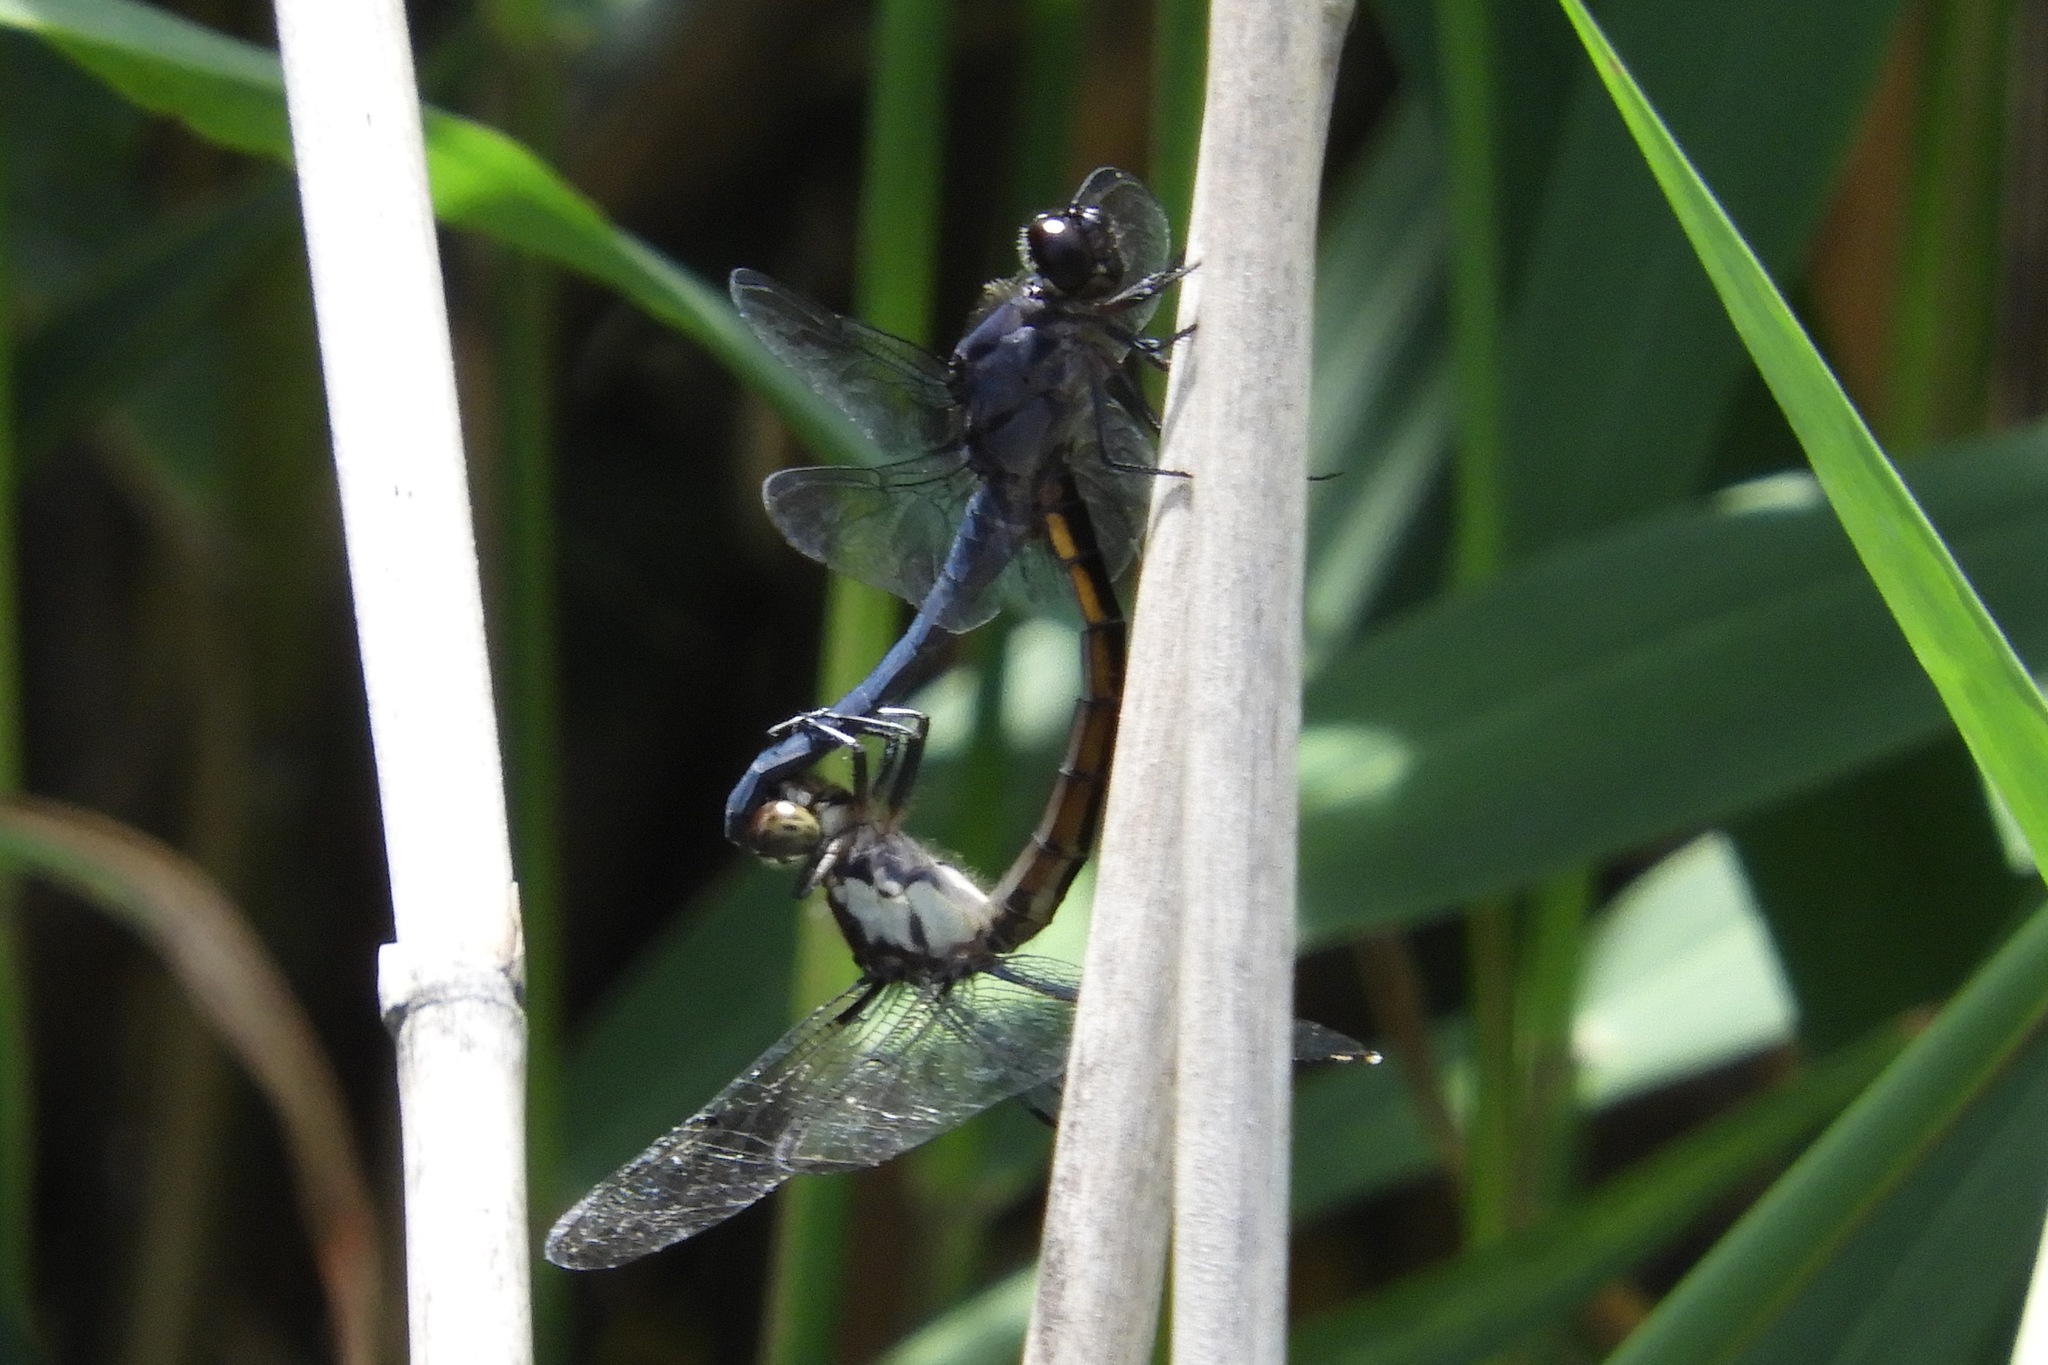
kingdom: Animalia
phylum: Arthropoda
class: Insecta
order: Odonata
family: Libellulidae
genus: Libellula
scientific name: Libellula incesta
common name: Slaty skimmer
